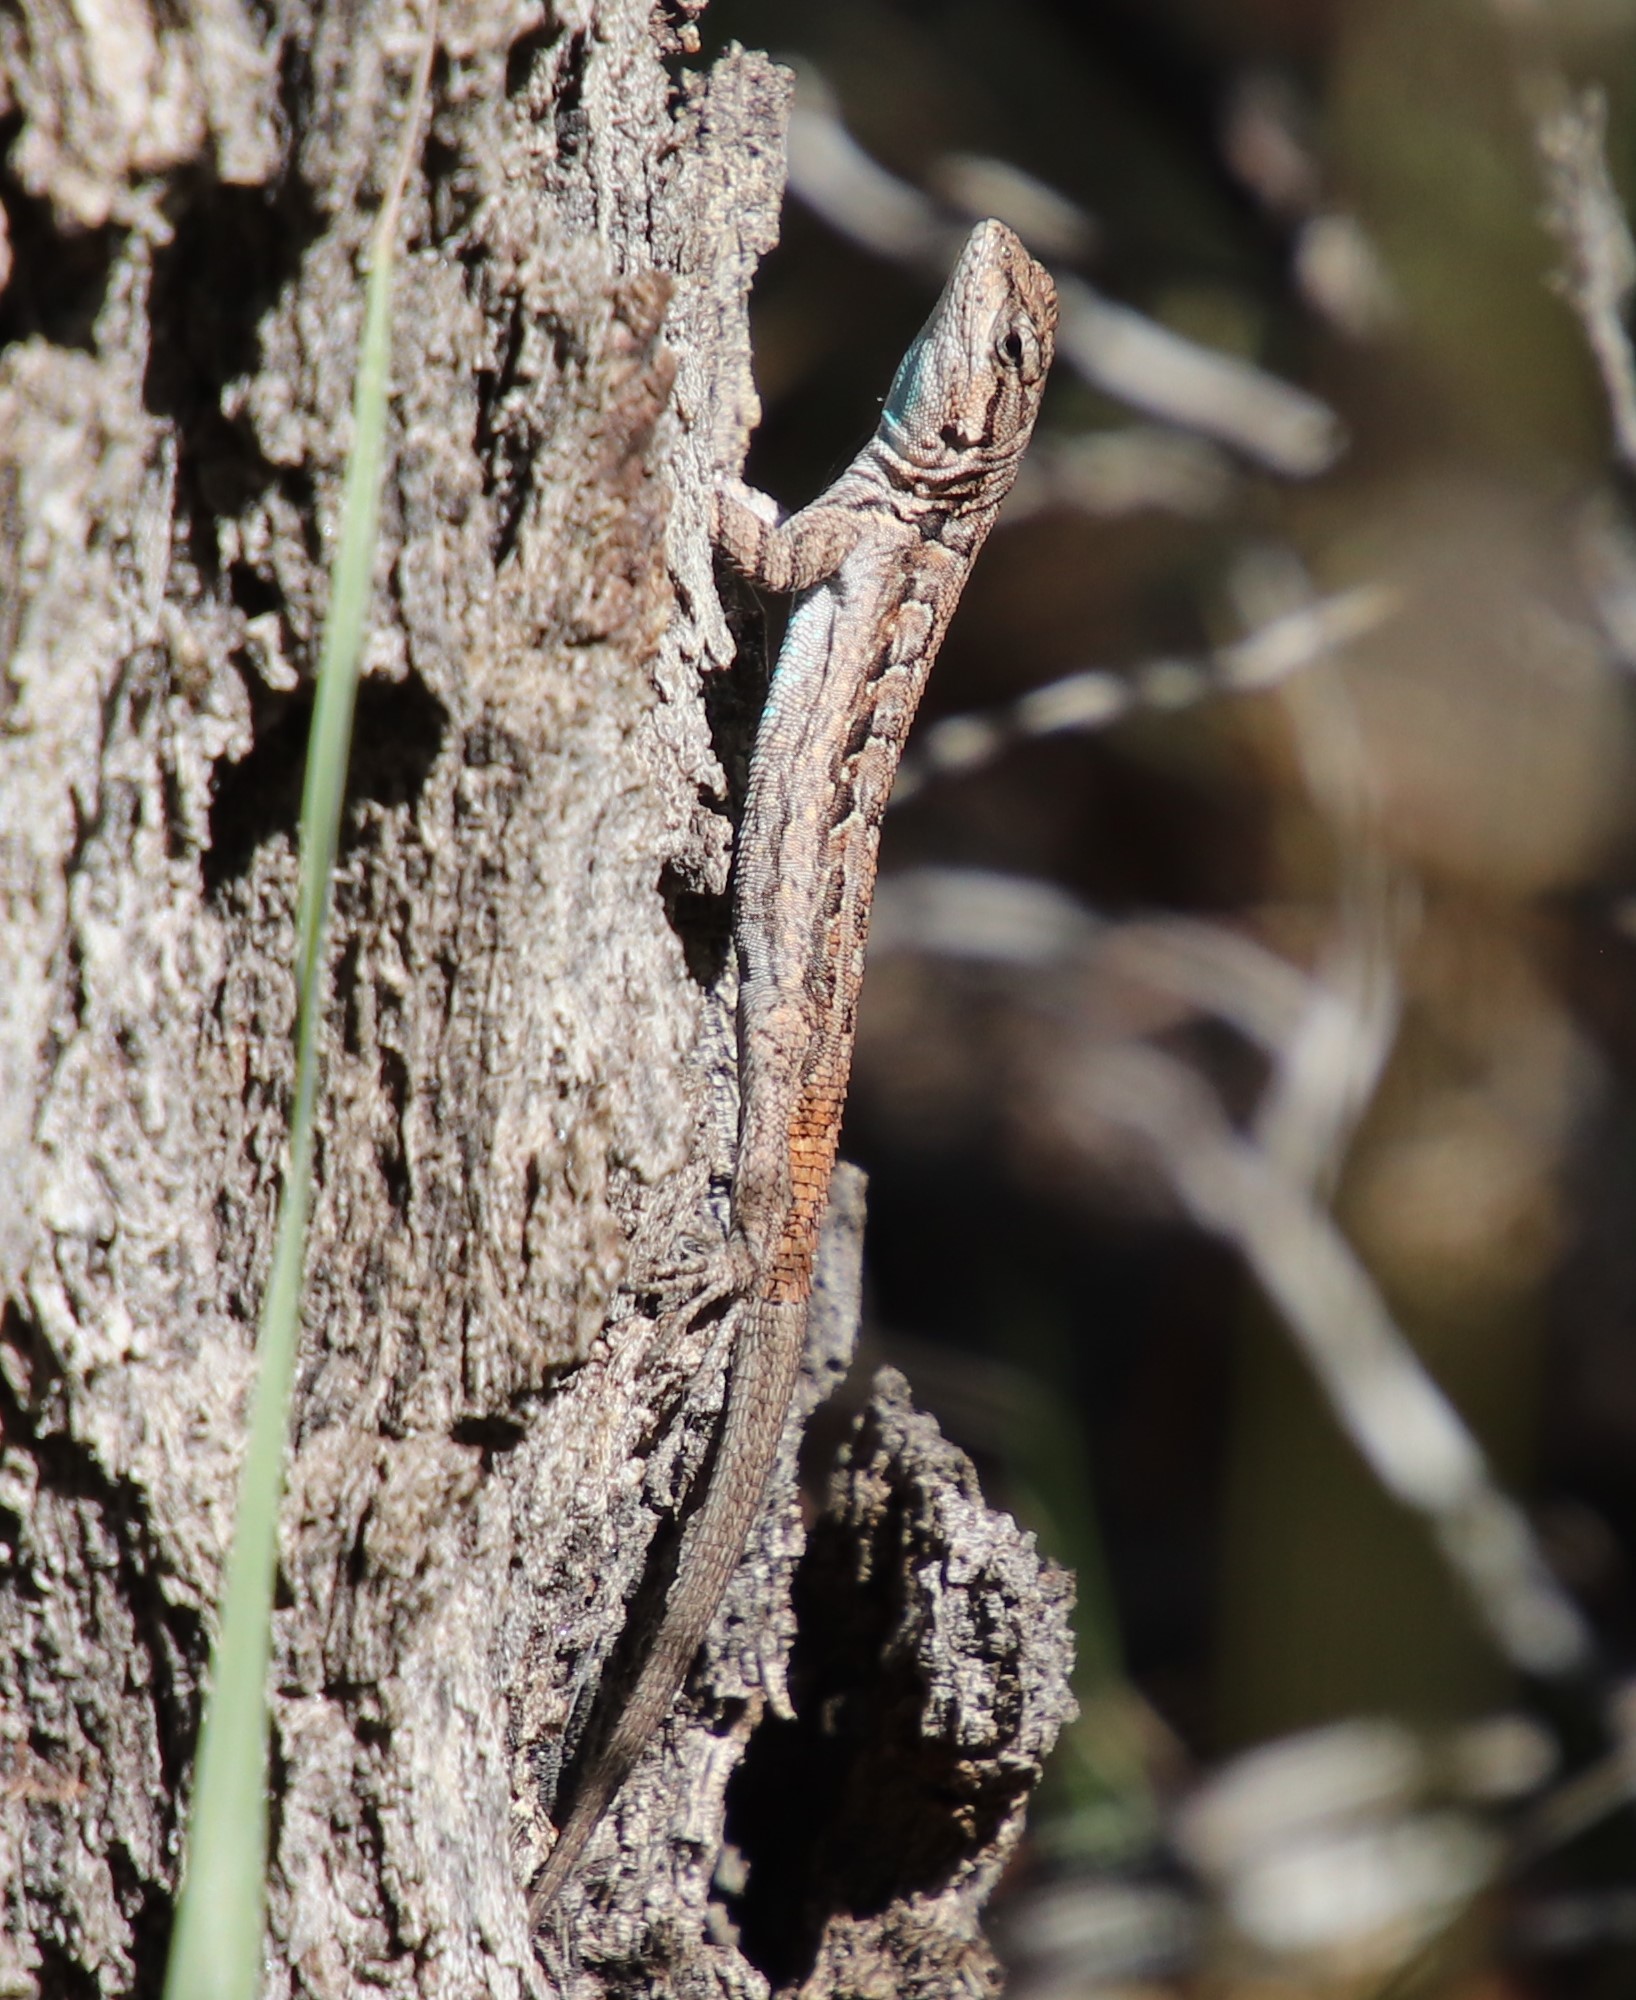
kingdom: Animalia
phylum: Chordata
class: Squamata
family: Phrynosomatidae
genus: Urosaurus
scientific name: Urosaurus ornatus
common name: Ornate tree lizard
